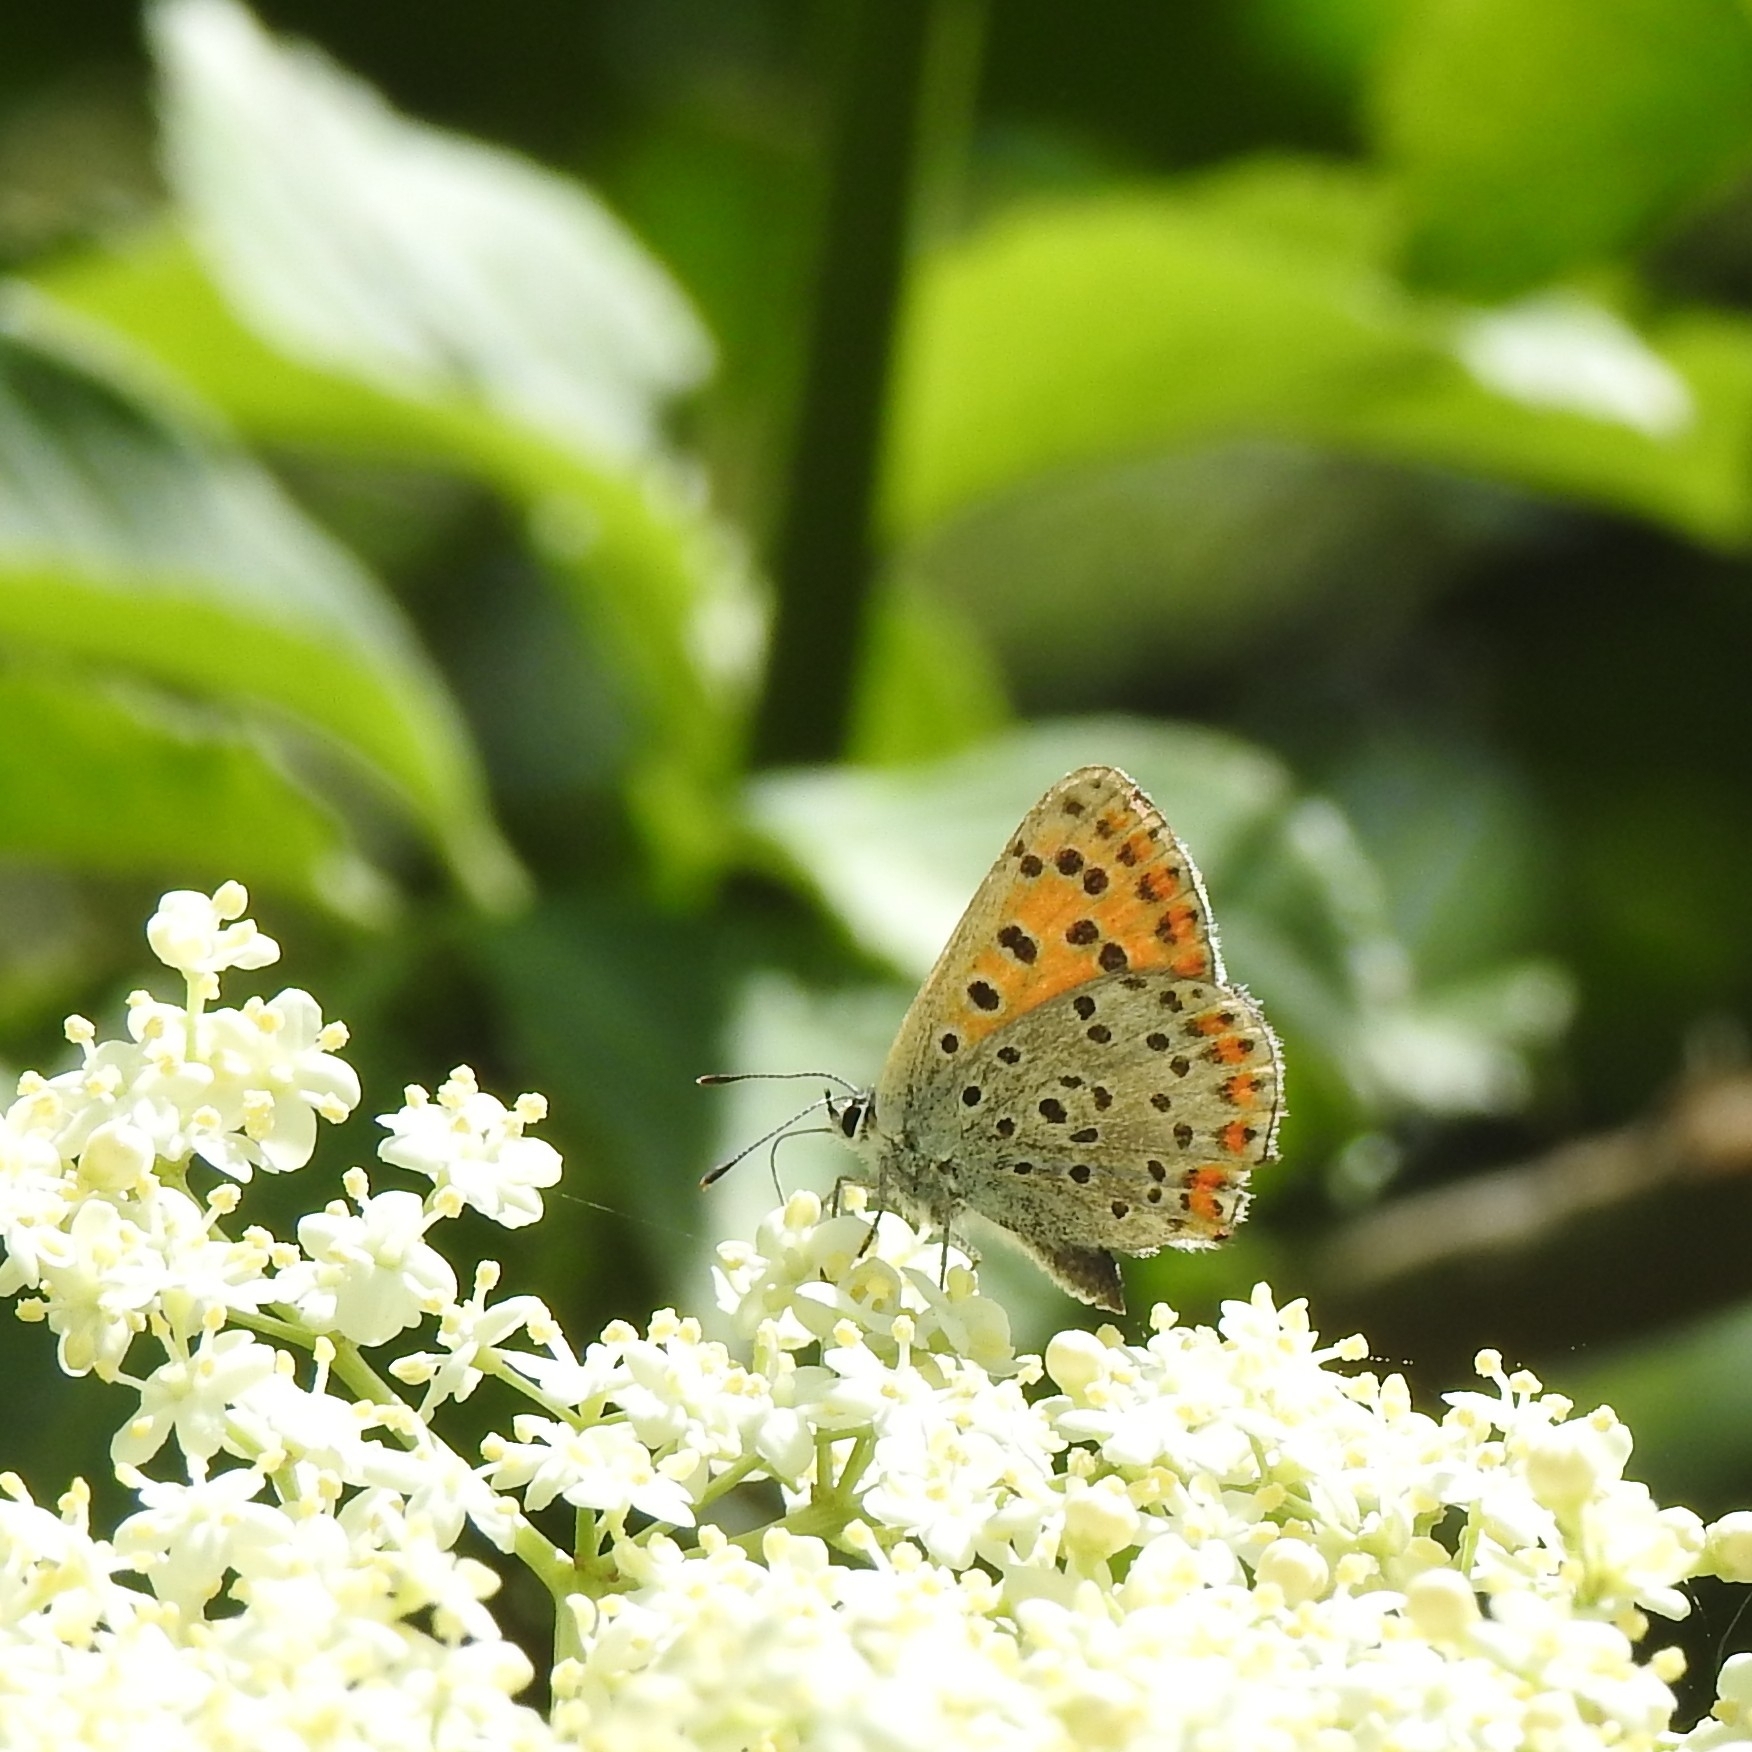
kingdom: Animalia
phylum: Arthropoda
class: Insecta
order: Lepidoptera
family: Lycaenidae
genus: Loweia
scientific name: Loweia tityrus
